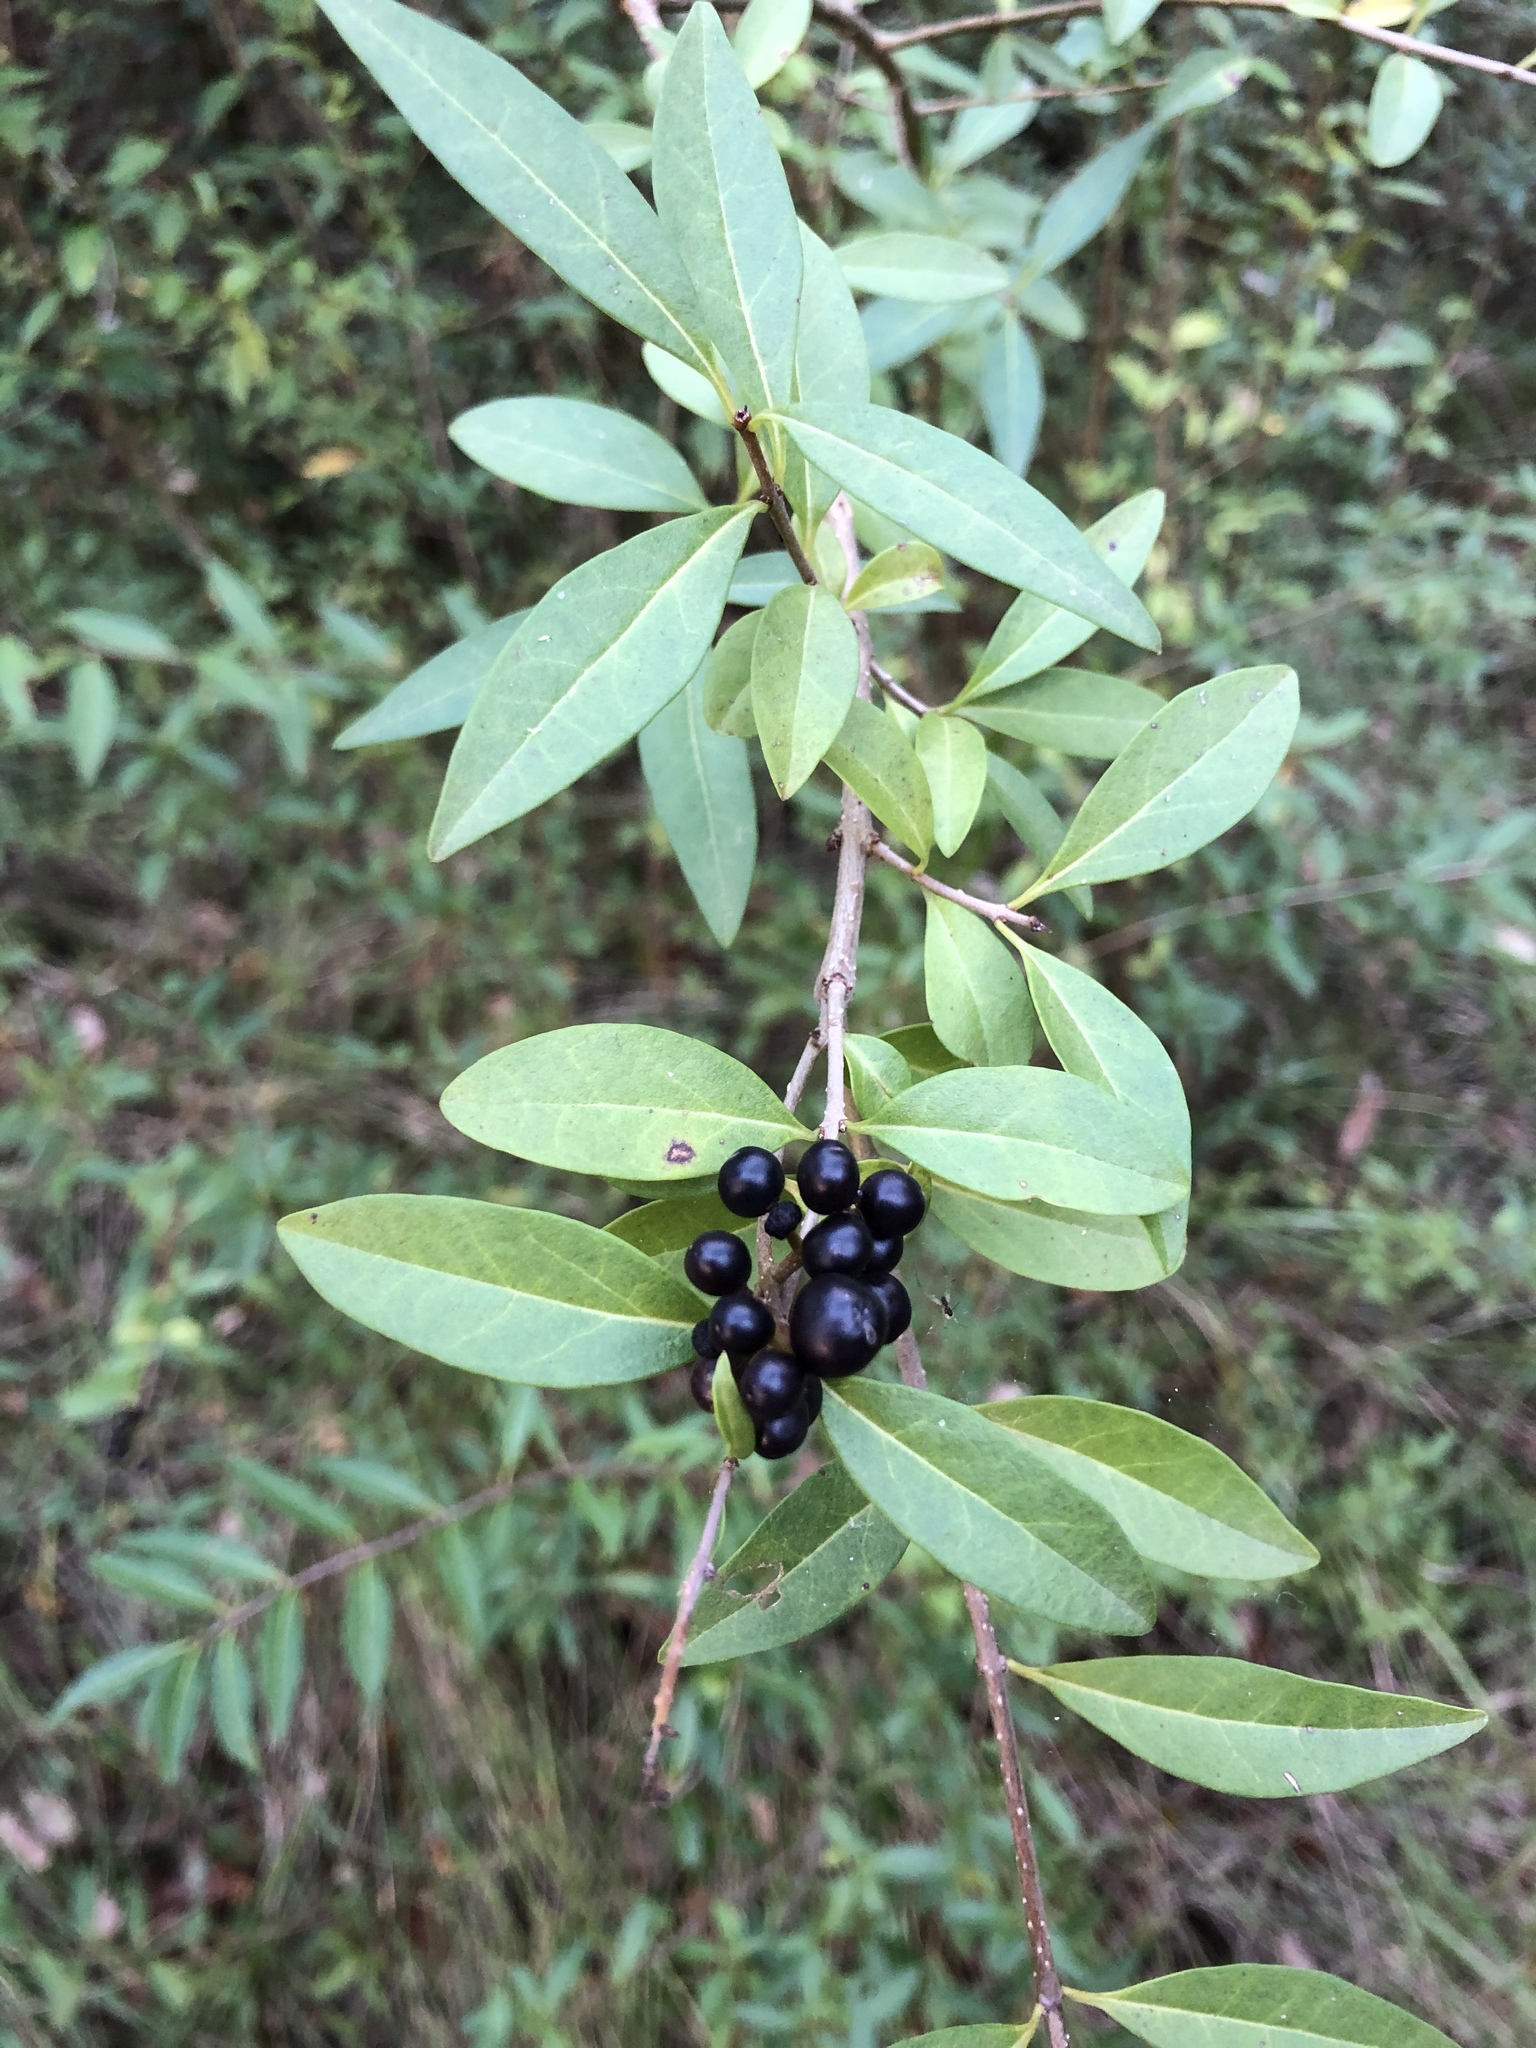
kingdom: Plantae
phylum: Tracheophyta
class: Magnoliopsida
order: Lamiales
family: Oleaceae
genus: Ligustrum
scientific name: Ligustrum vulgare
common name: Wild privet
